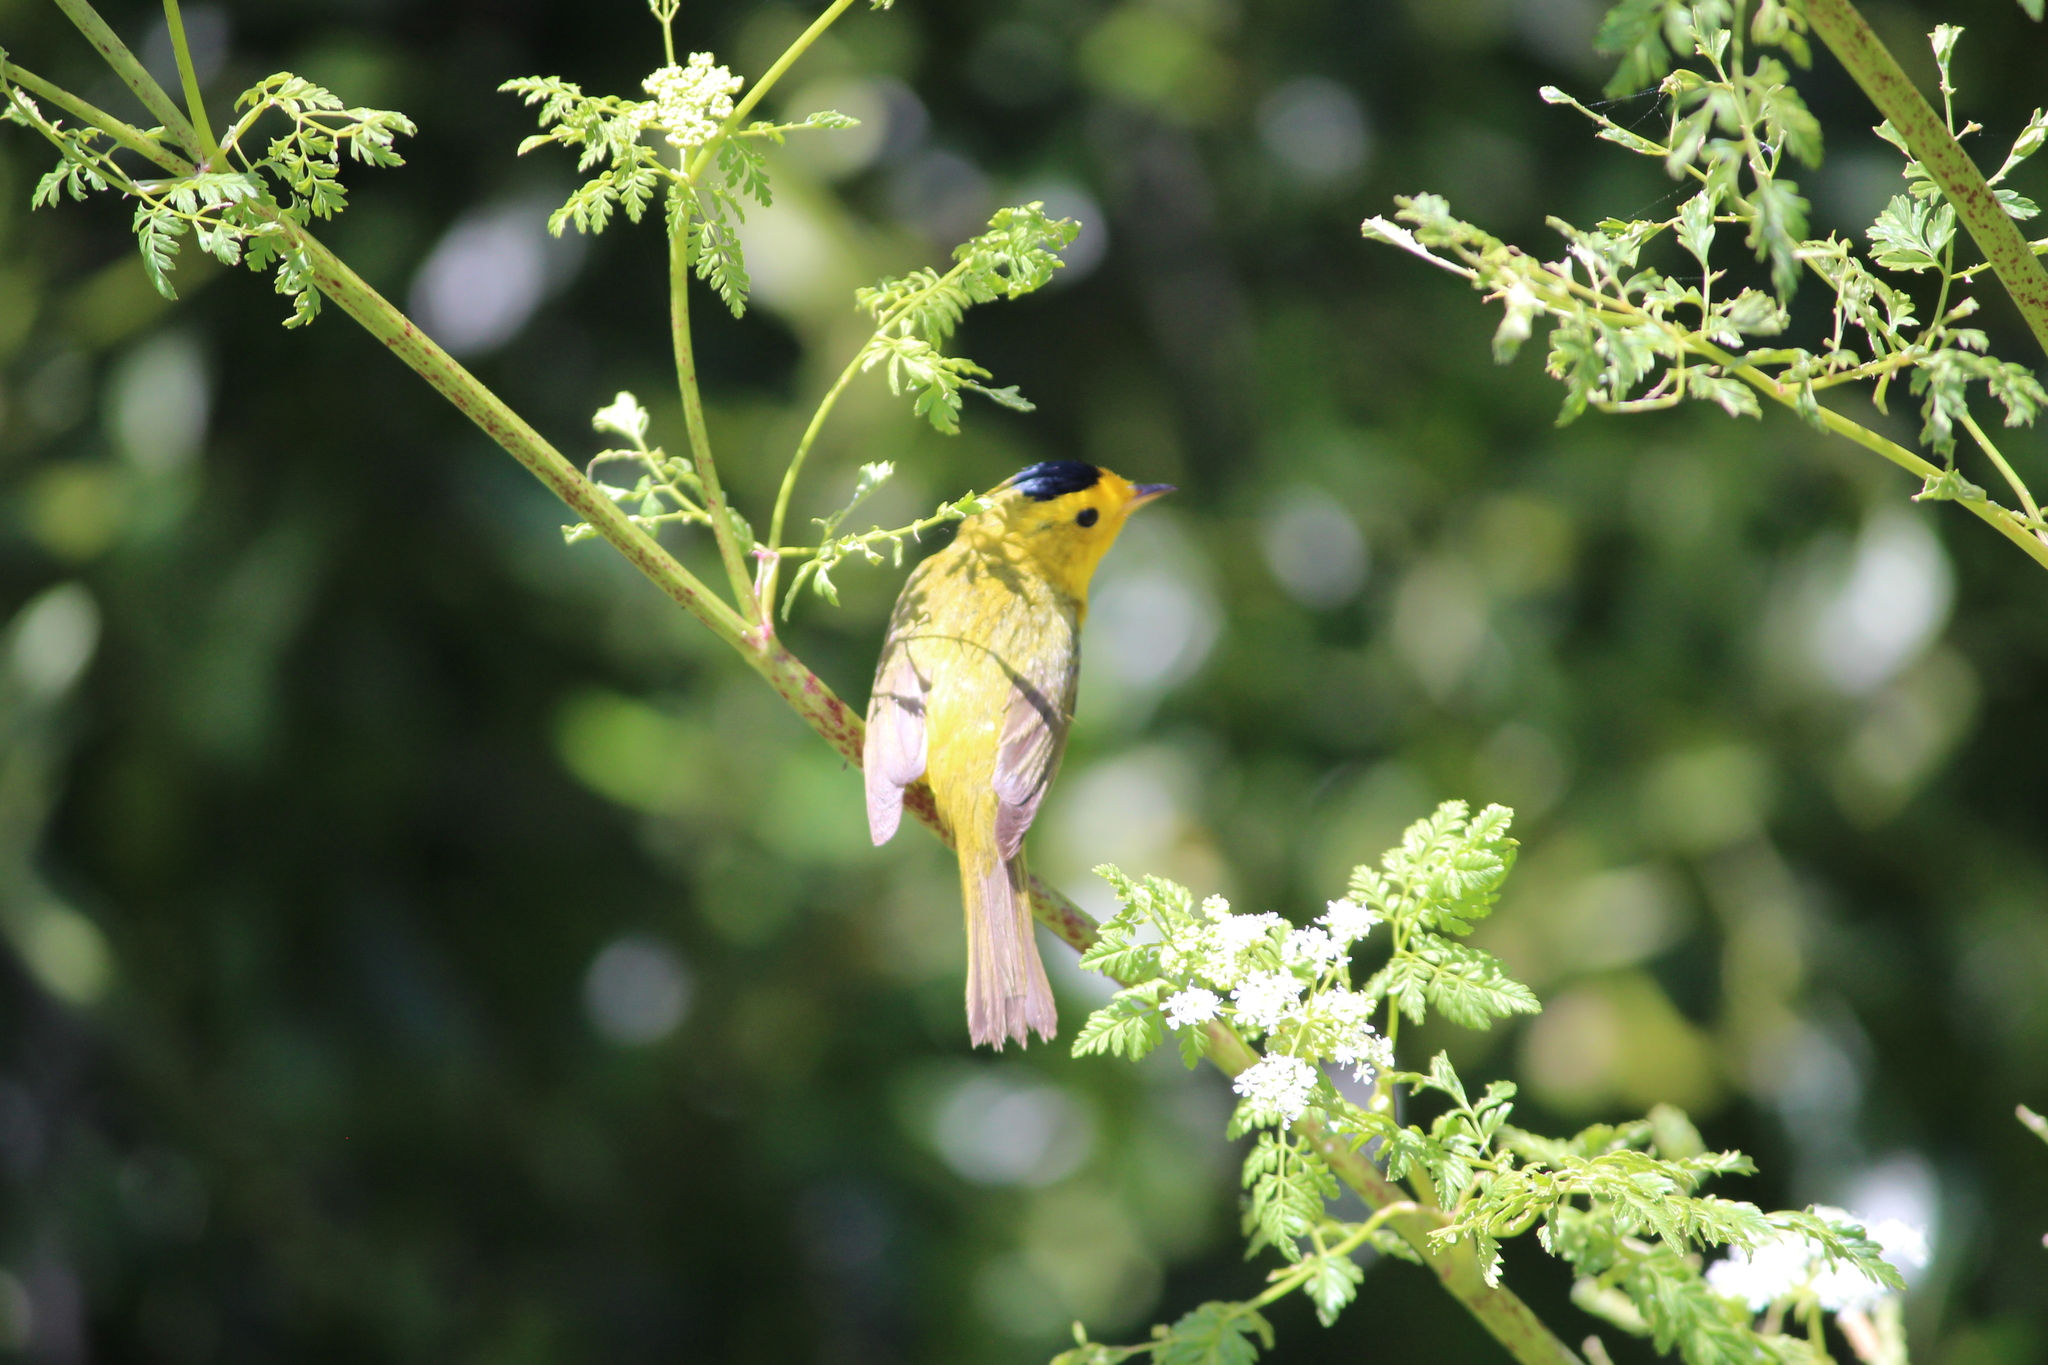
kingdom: Animalia
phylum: Chordata
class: Aves
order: Passeriformes
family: Parulidae
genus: Cardellina
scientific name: Cardellina pusilla
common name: Wilson's warbler
